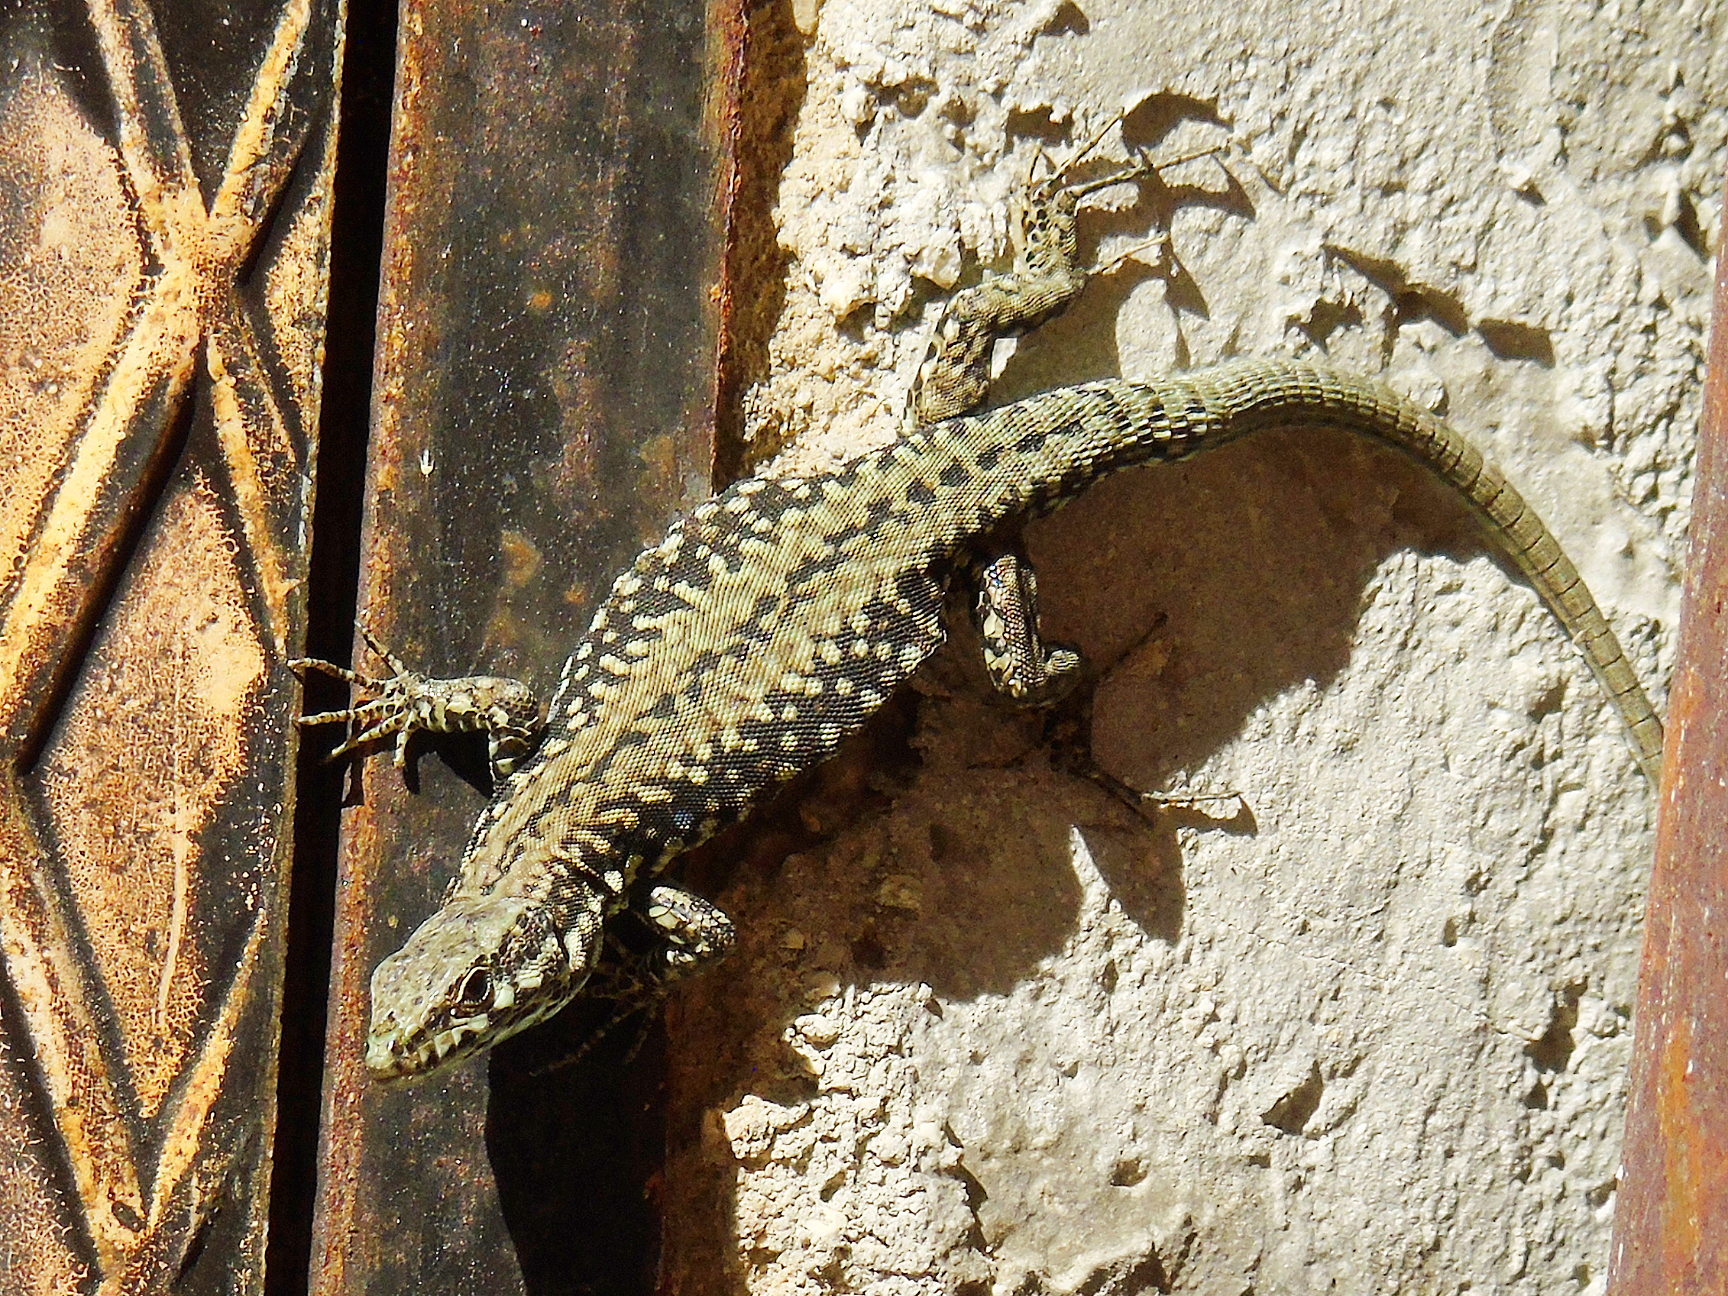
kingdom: Animalia
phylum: Chordata
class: Squamata
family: Lacertidae
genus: Podarcis
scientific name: Podarcis muralis
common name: Common wall lizard
